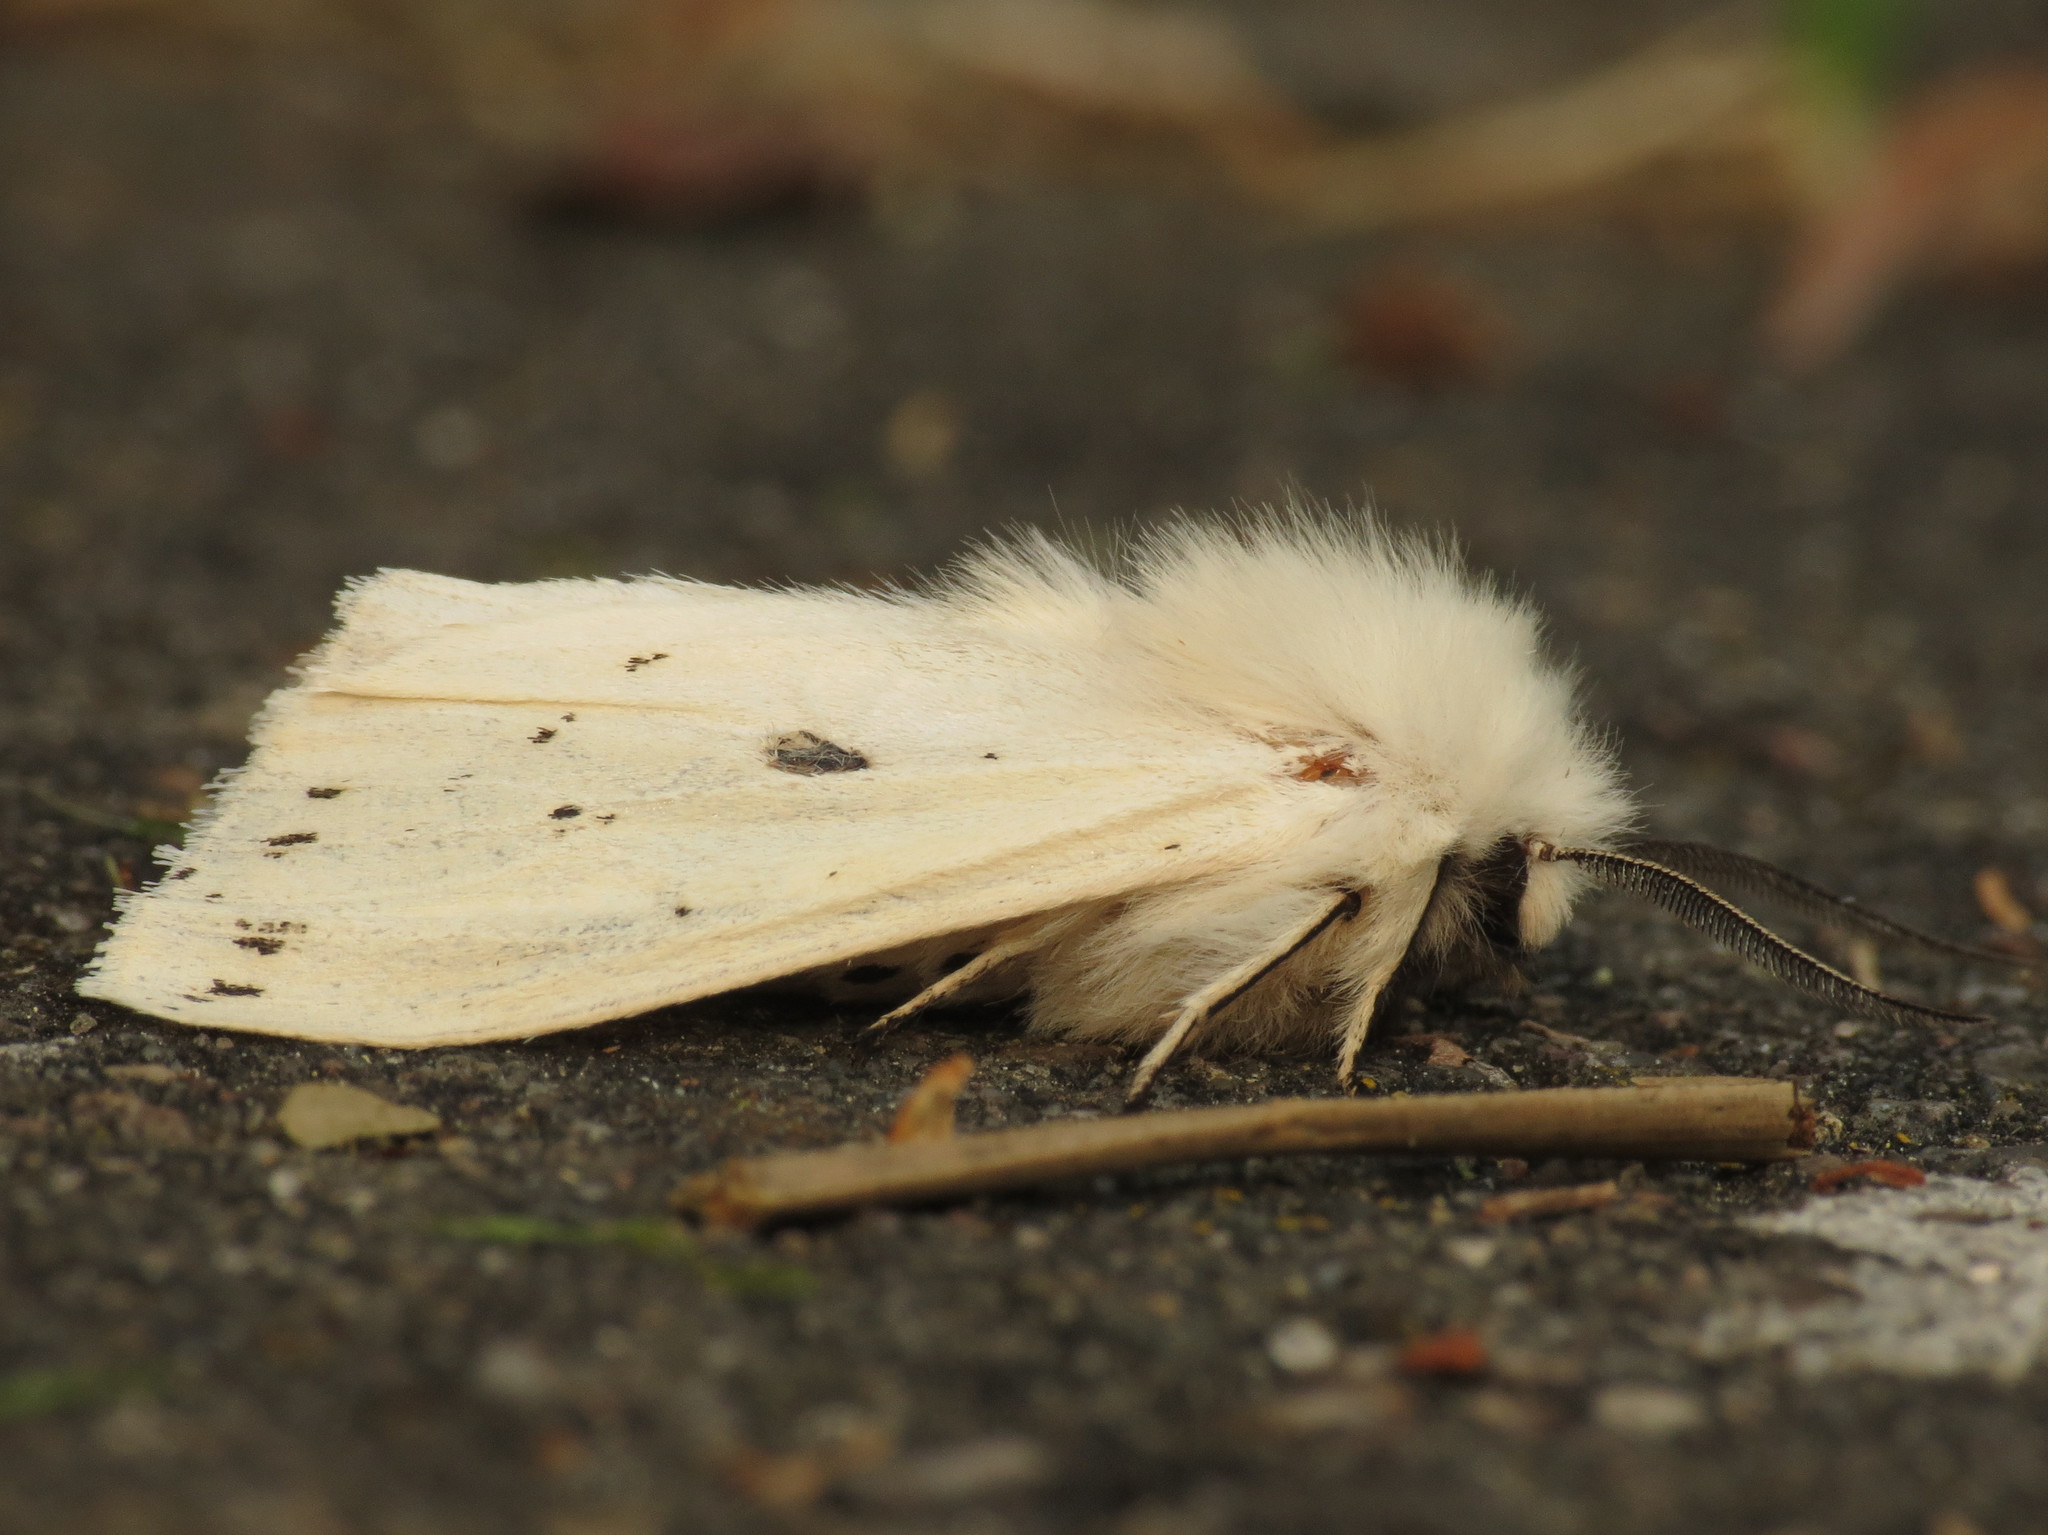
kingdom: Animalia
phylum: Arthropoda
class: Insecta
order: Lepidoptera
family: Erebidae
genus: Spilosoma
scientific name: Spilosoma lubricipeda
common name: White ermine
